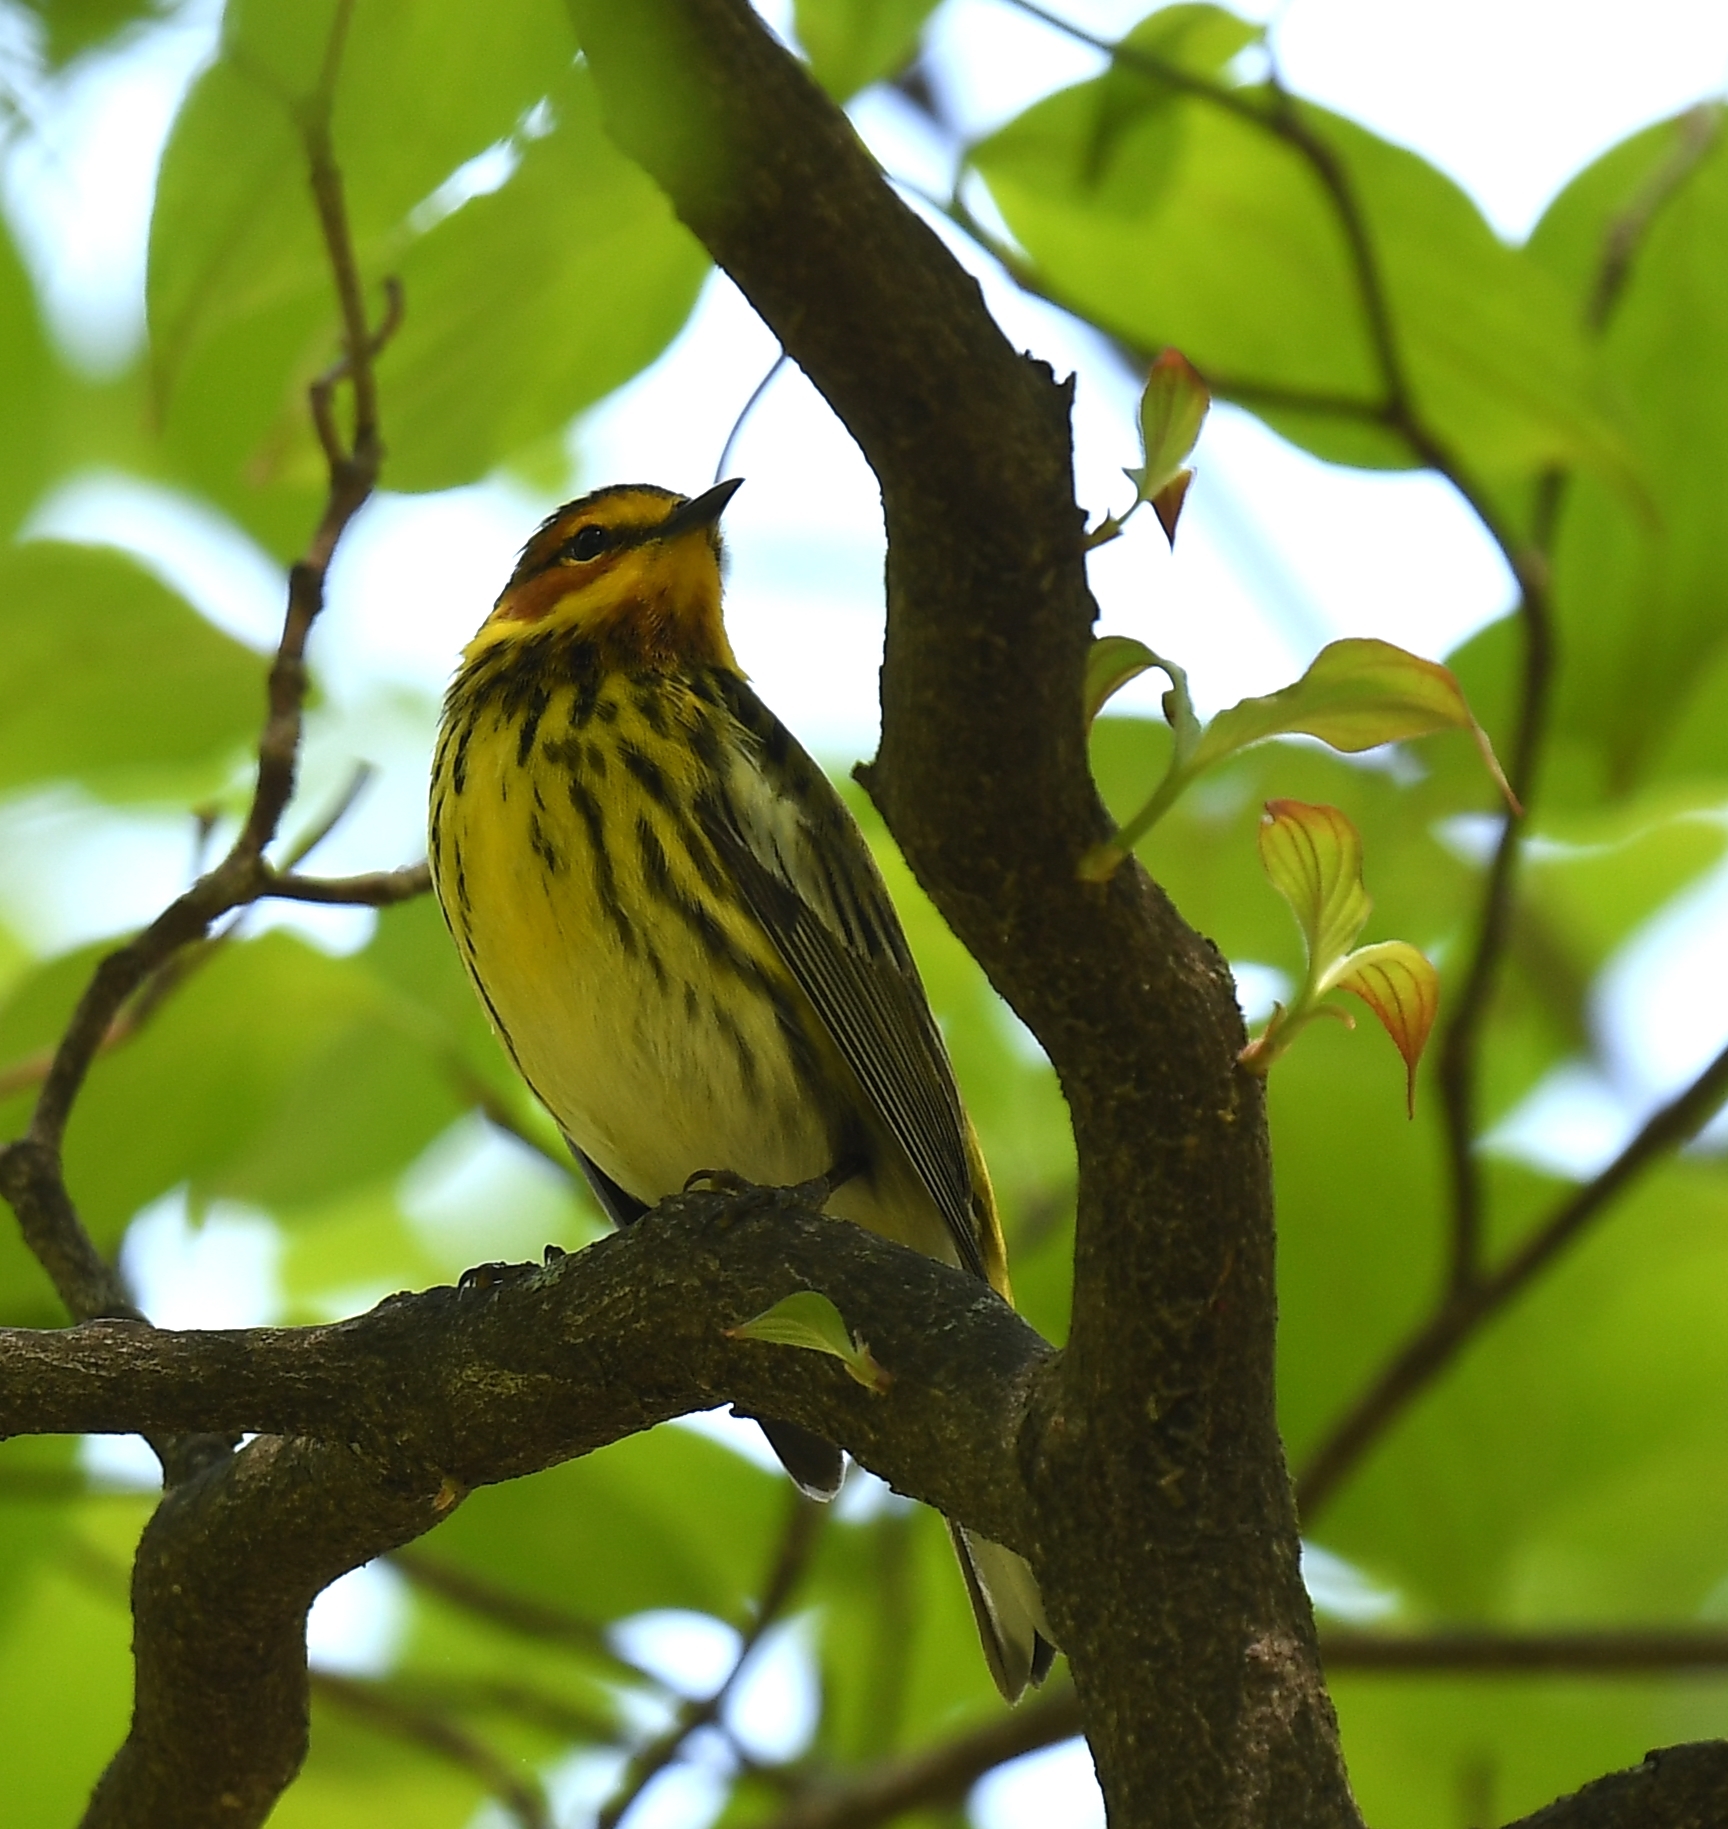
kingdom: Animalia
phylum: Chordata
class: Aves
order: Passeriformes
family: Parulidae
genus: Setophaga
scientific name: Setophaga tigrina
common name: Cape may warbler
